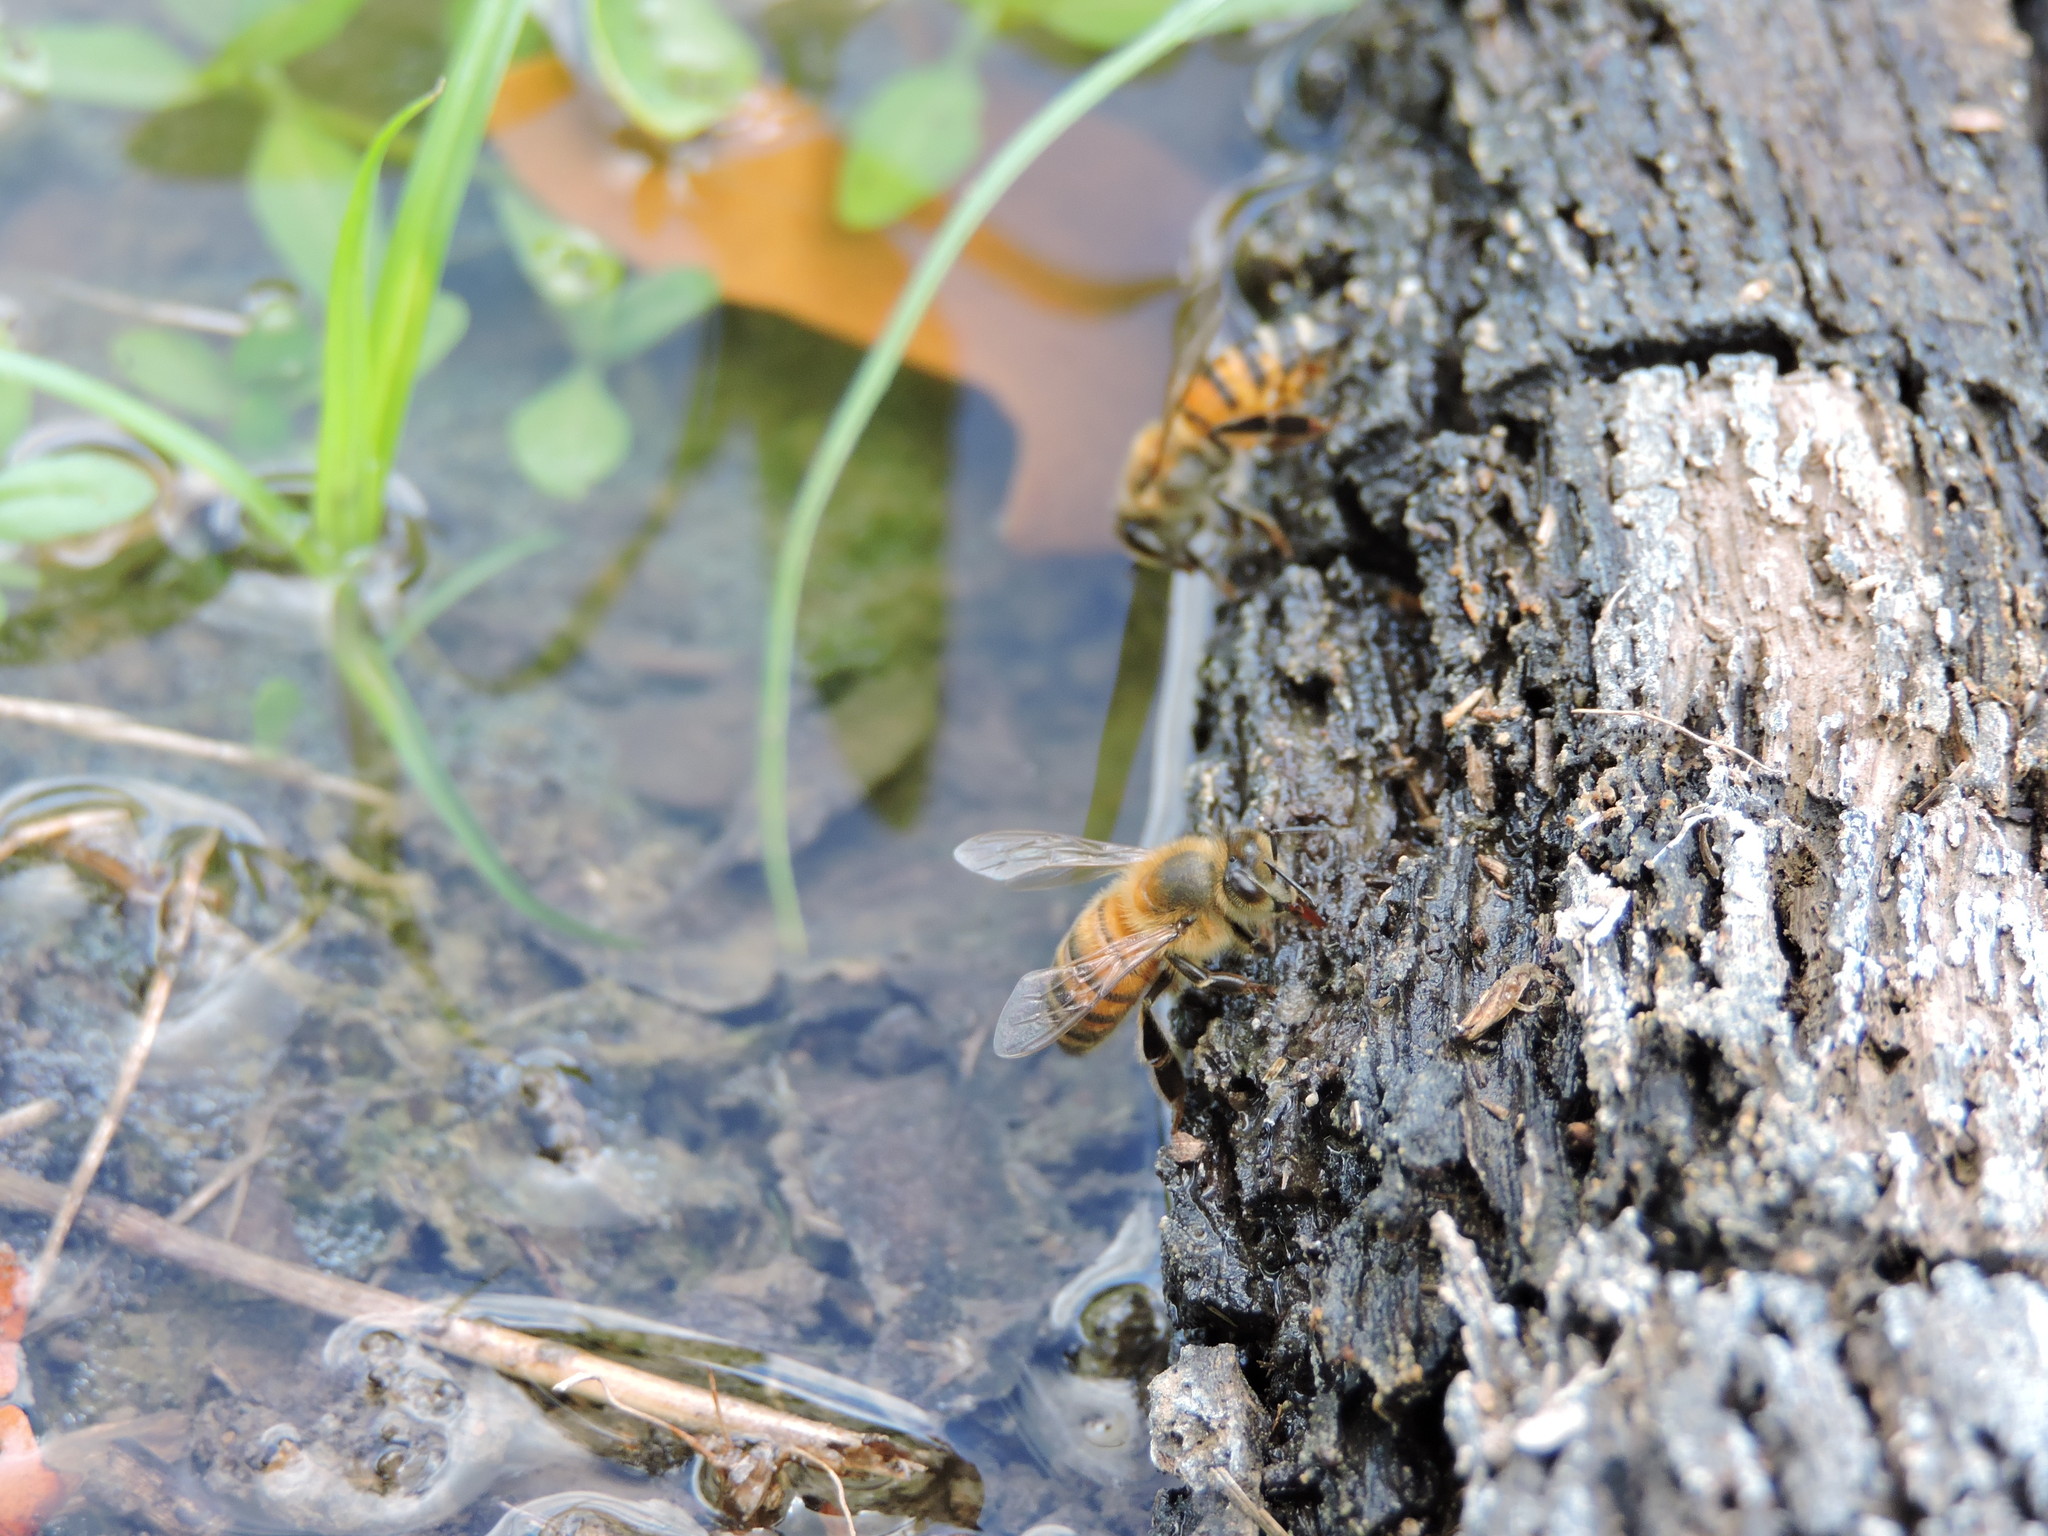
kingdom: Animalia
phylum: Arthropoda
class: Insecta
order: Hymenoptera
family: Apidae
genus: Apis
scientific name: Apis mellifera
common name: Honey bee
